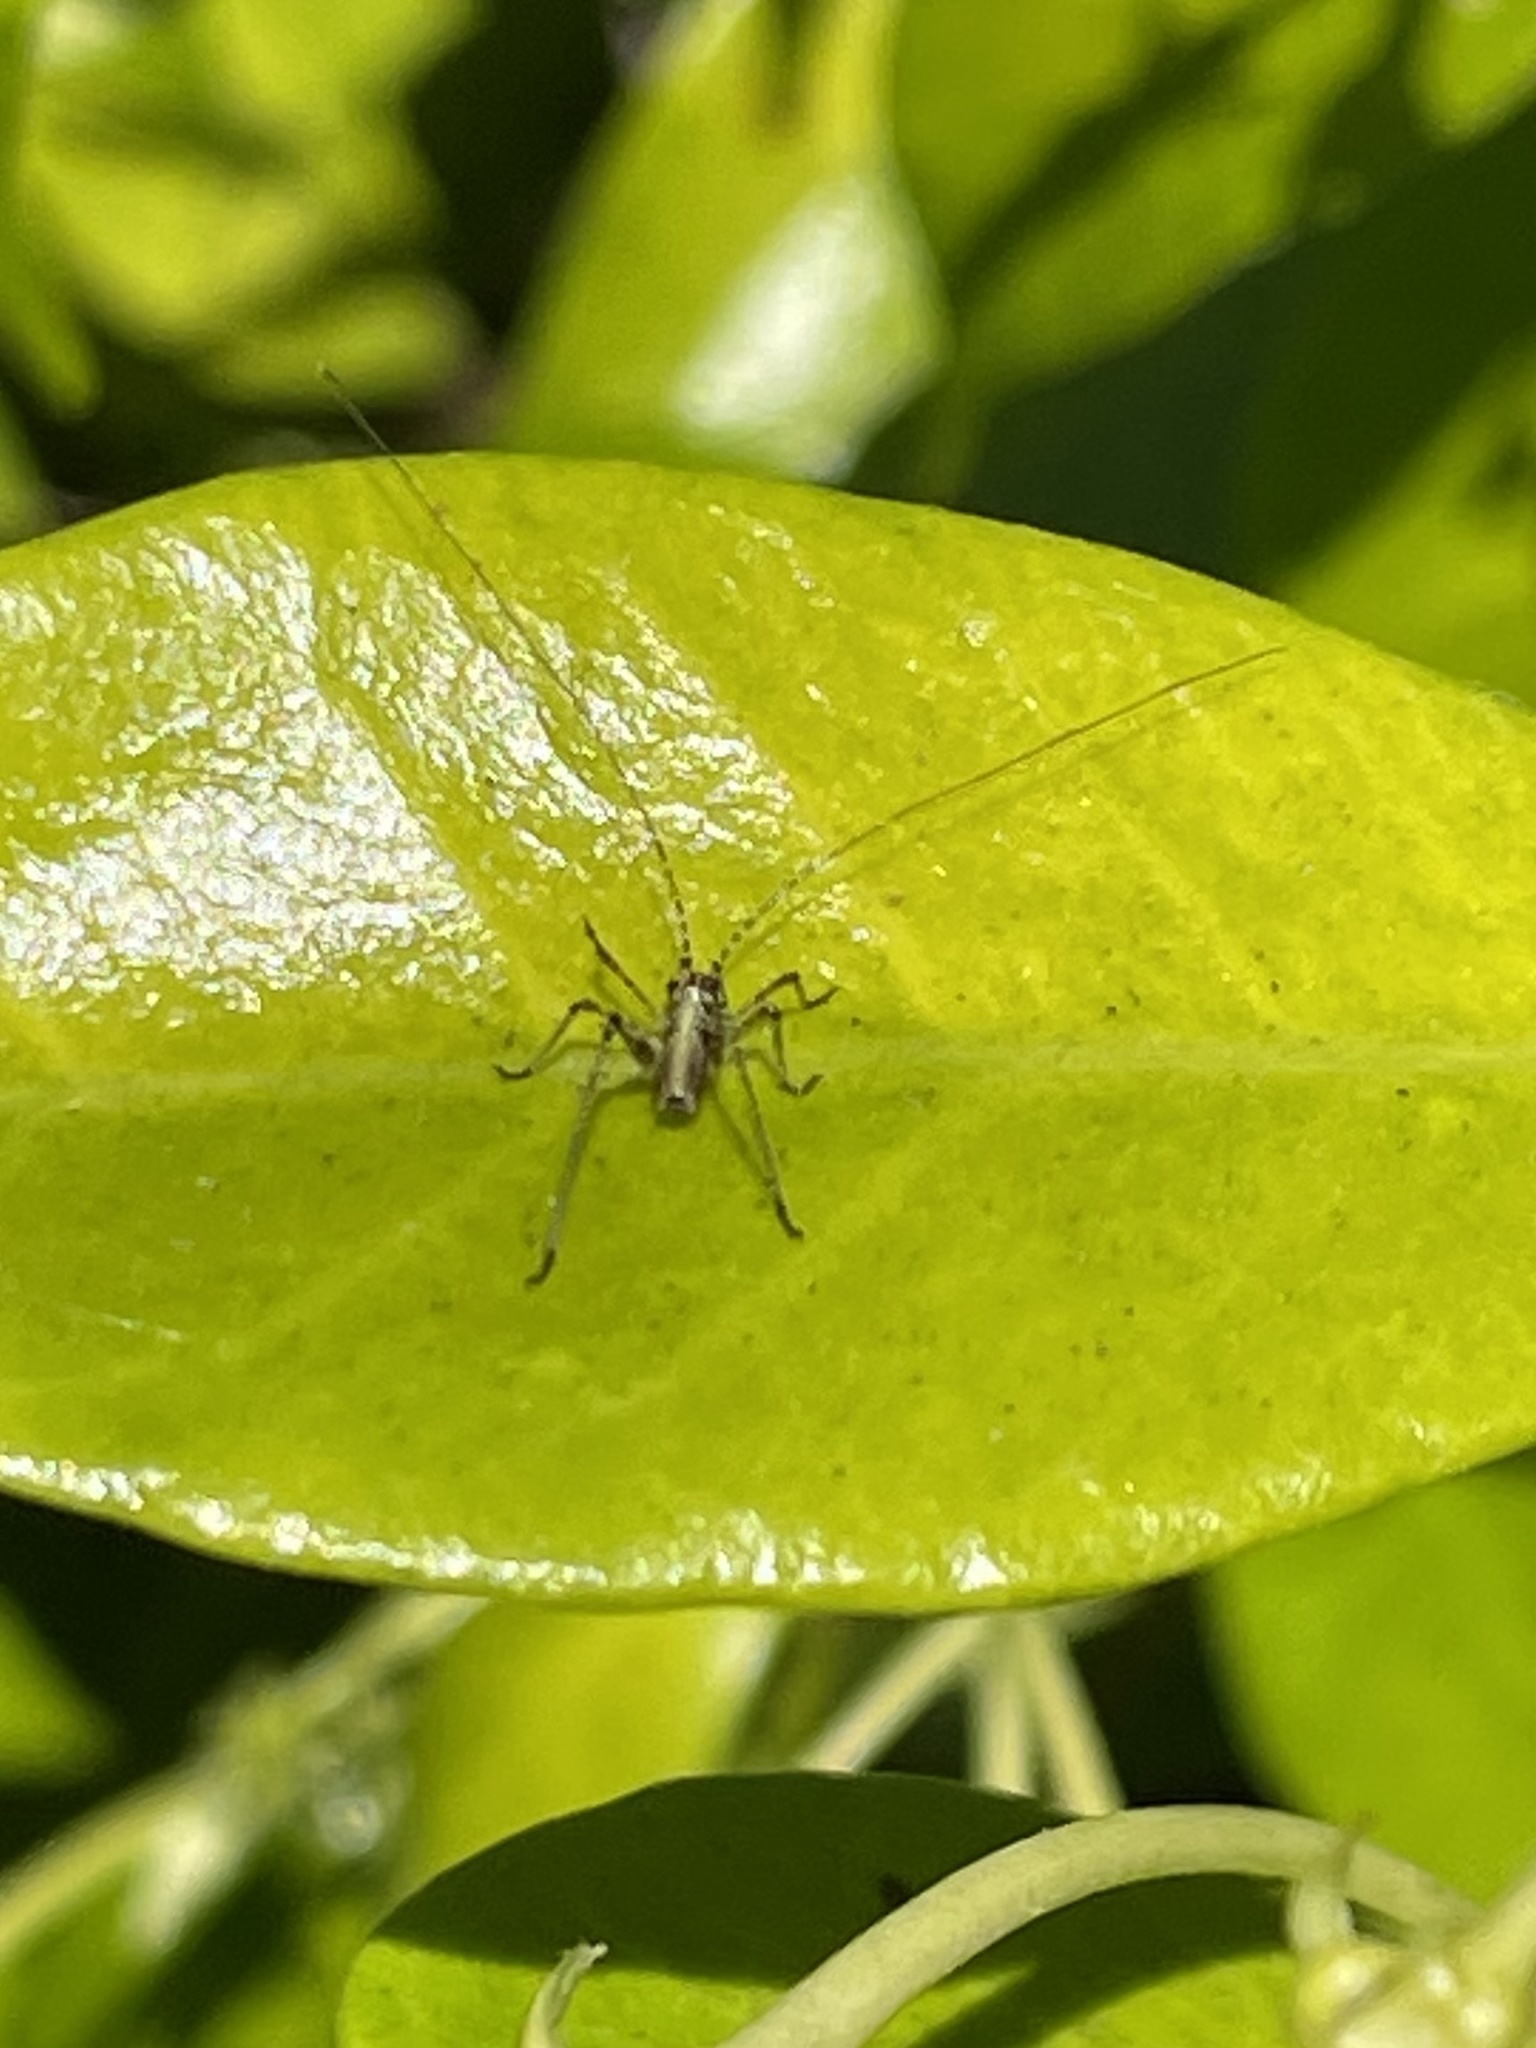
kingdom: Animalia
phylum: Arthropoda
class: Insecta
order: Orthoptera
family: Tettigoniidae
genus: Phaneroptera
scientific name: Phaneroptera nana
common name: Southern sickle bush-cricket
